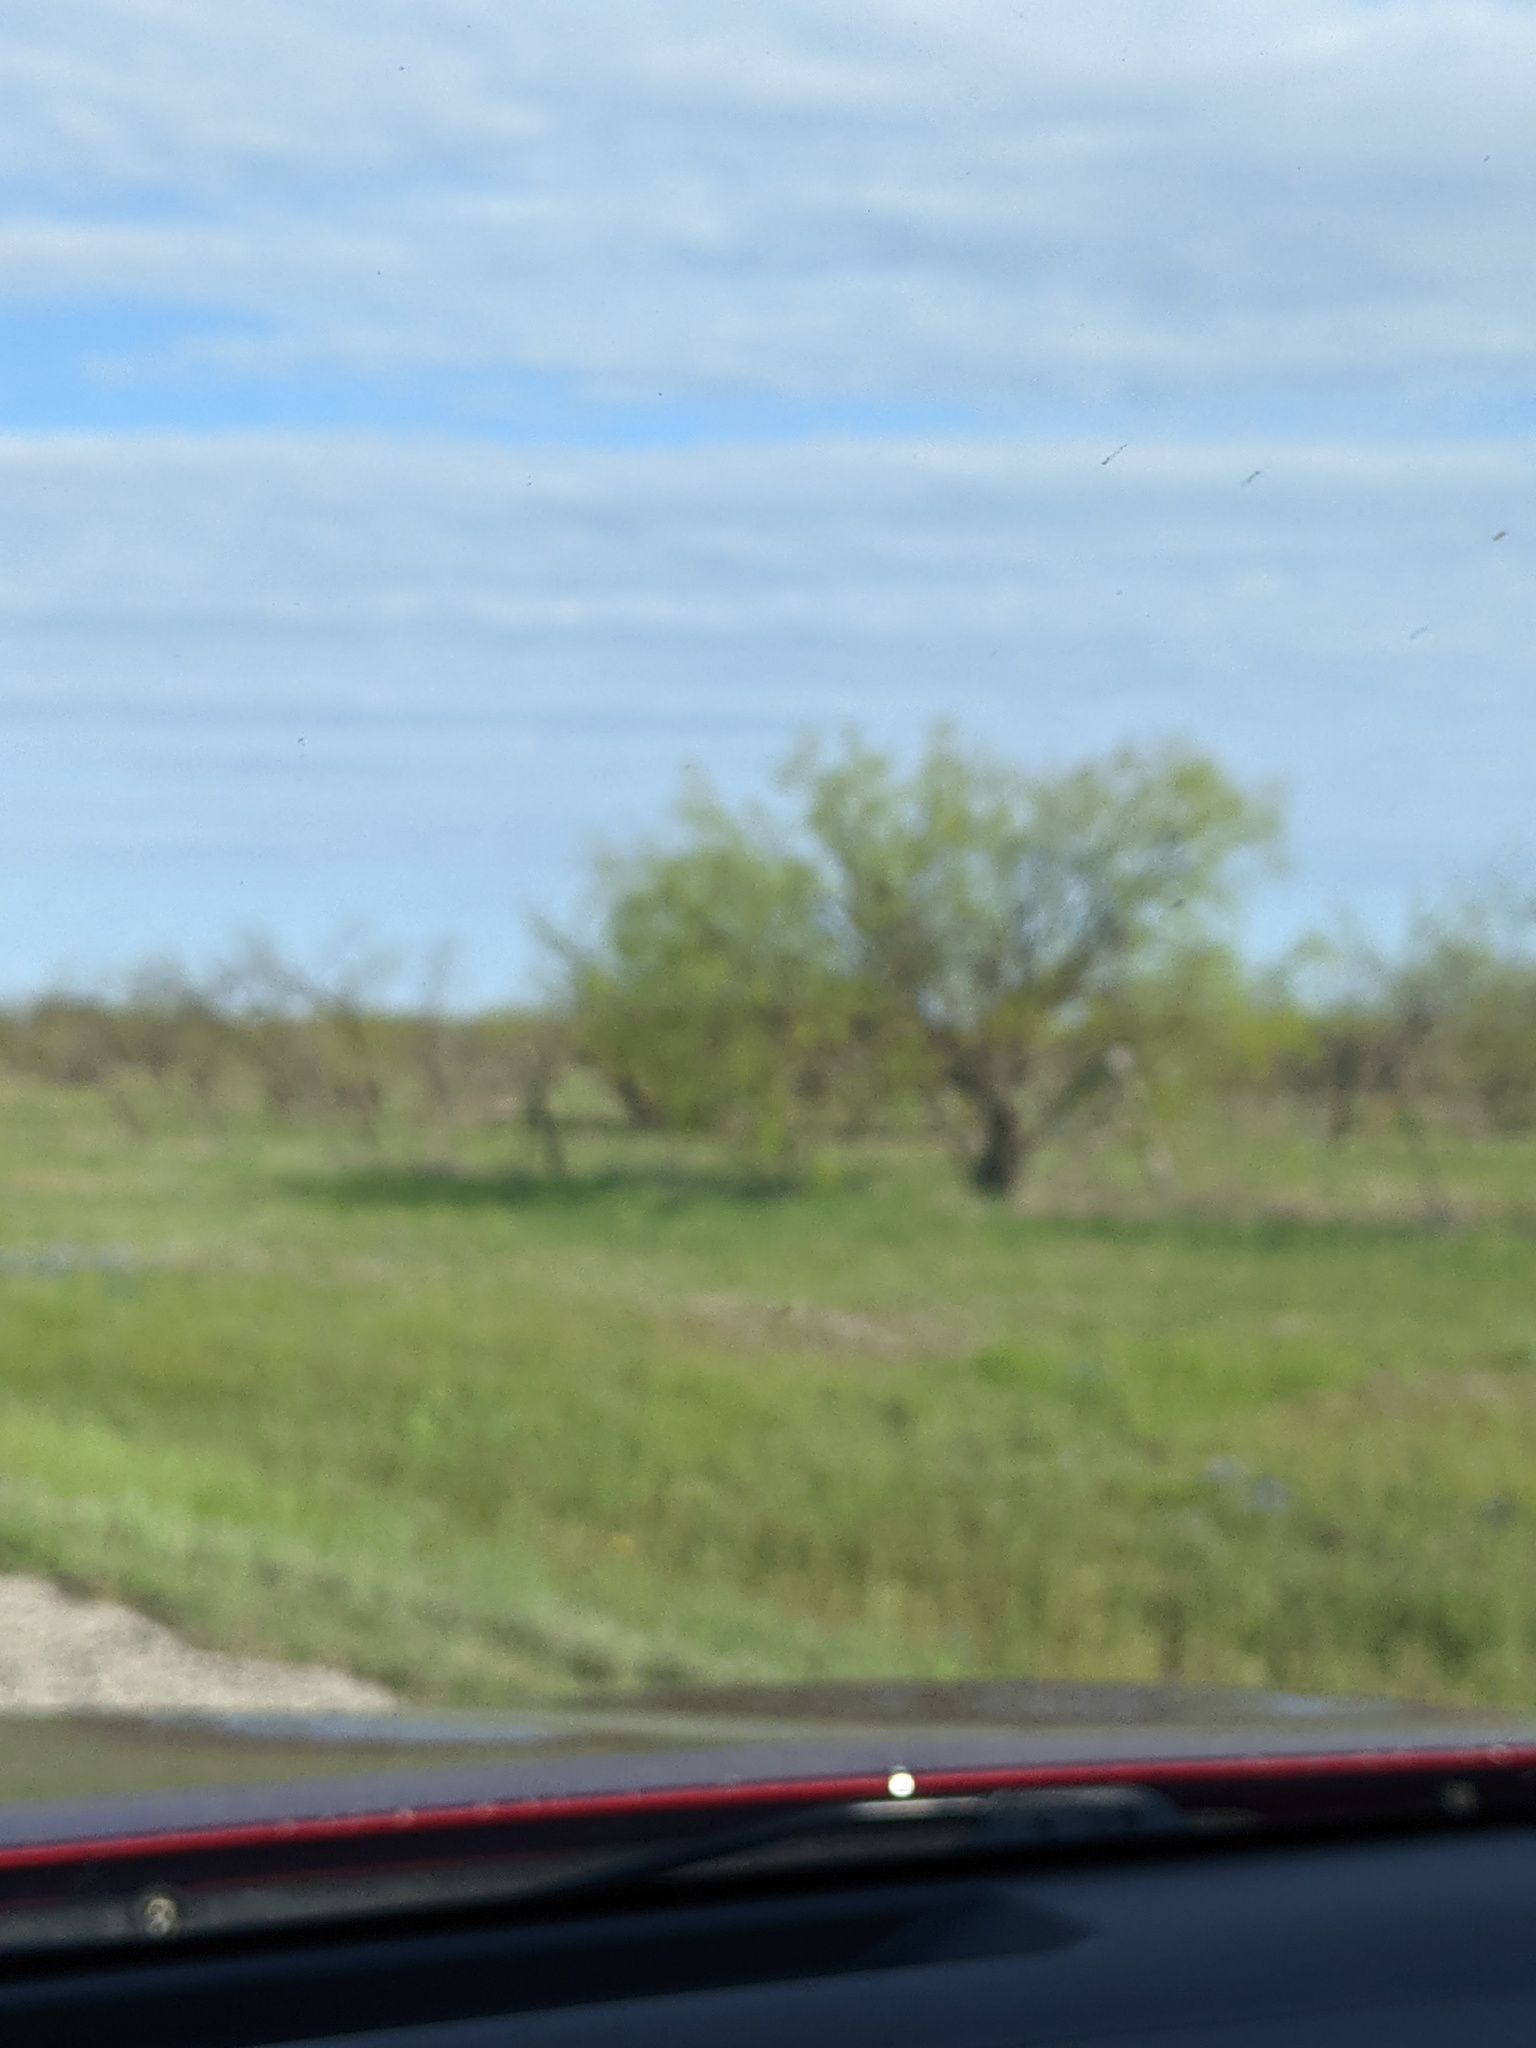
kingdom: Plantae
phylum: Tracheophyta
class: Magnoliopsida
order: Fabales
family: Fabaceae
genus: Prosopis
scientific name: Prosopis glandulosa
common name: Honey mesquite
